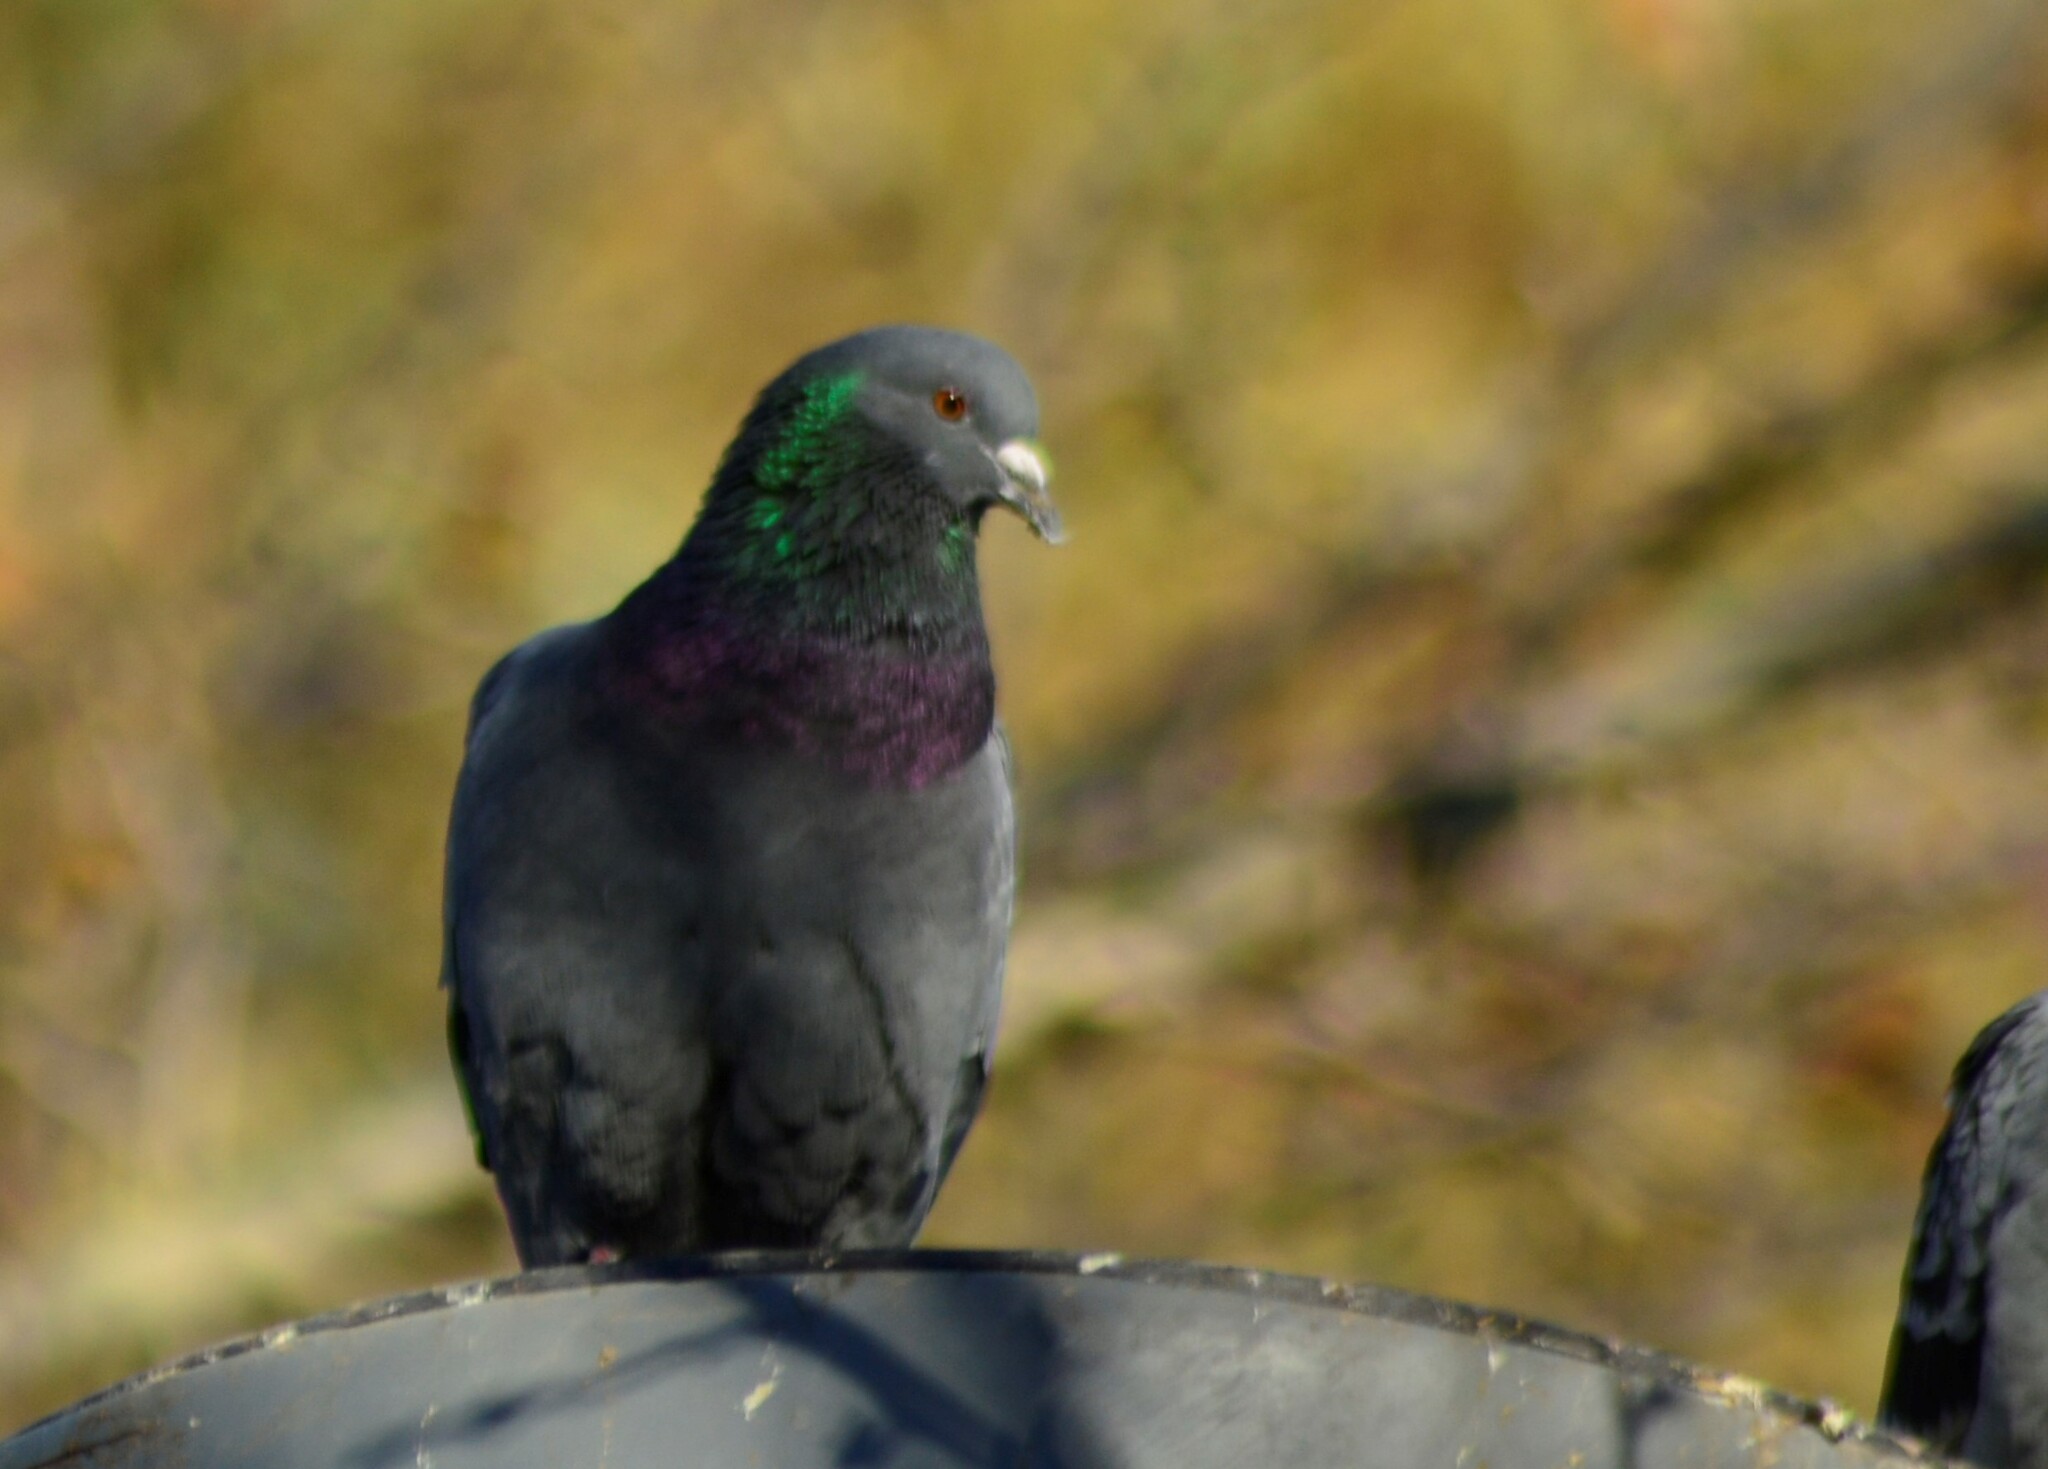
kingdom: Animalia
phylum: Chordata
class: Aves
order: Columbiformes
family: Columbidae
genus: Columba
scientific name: Columba livia
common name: Rock pigeon
